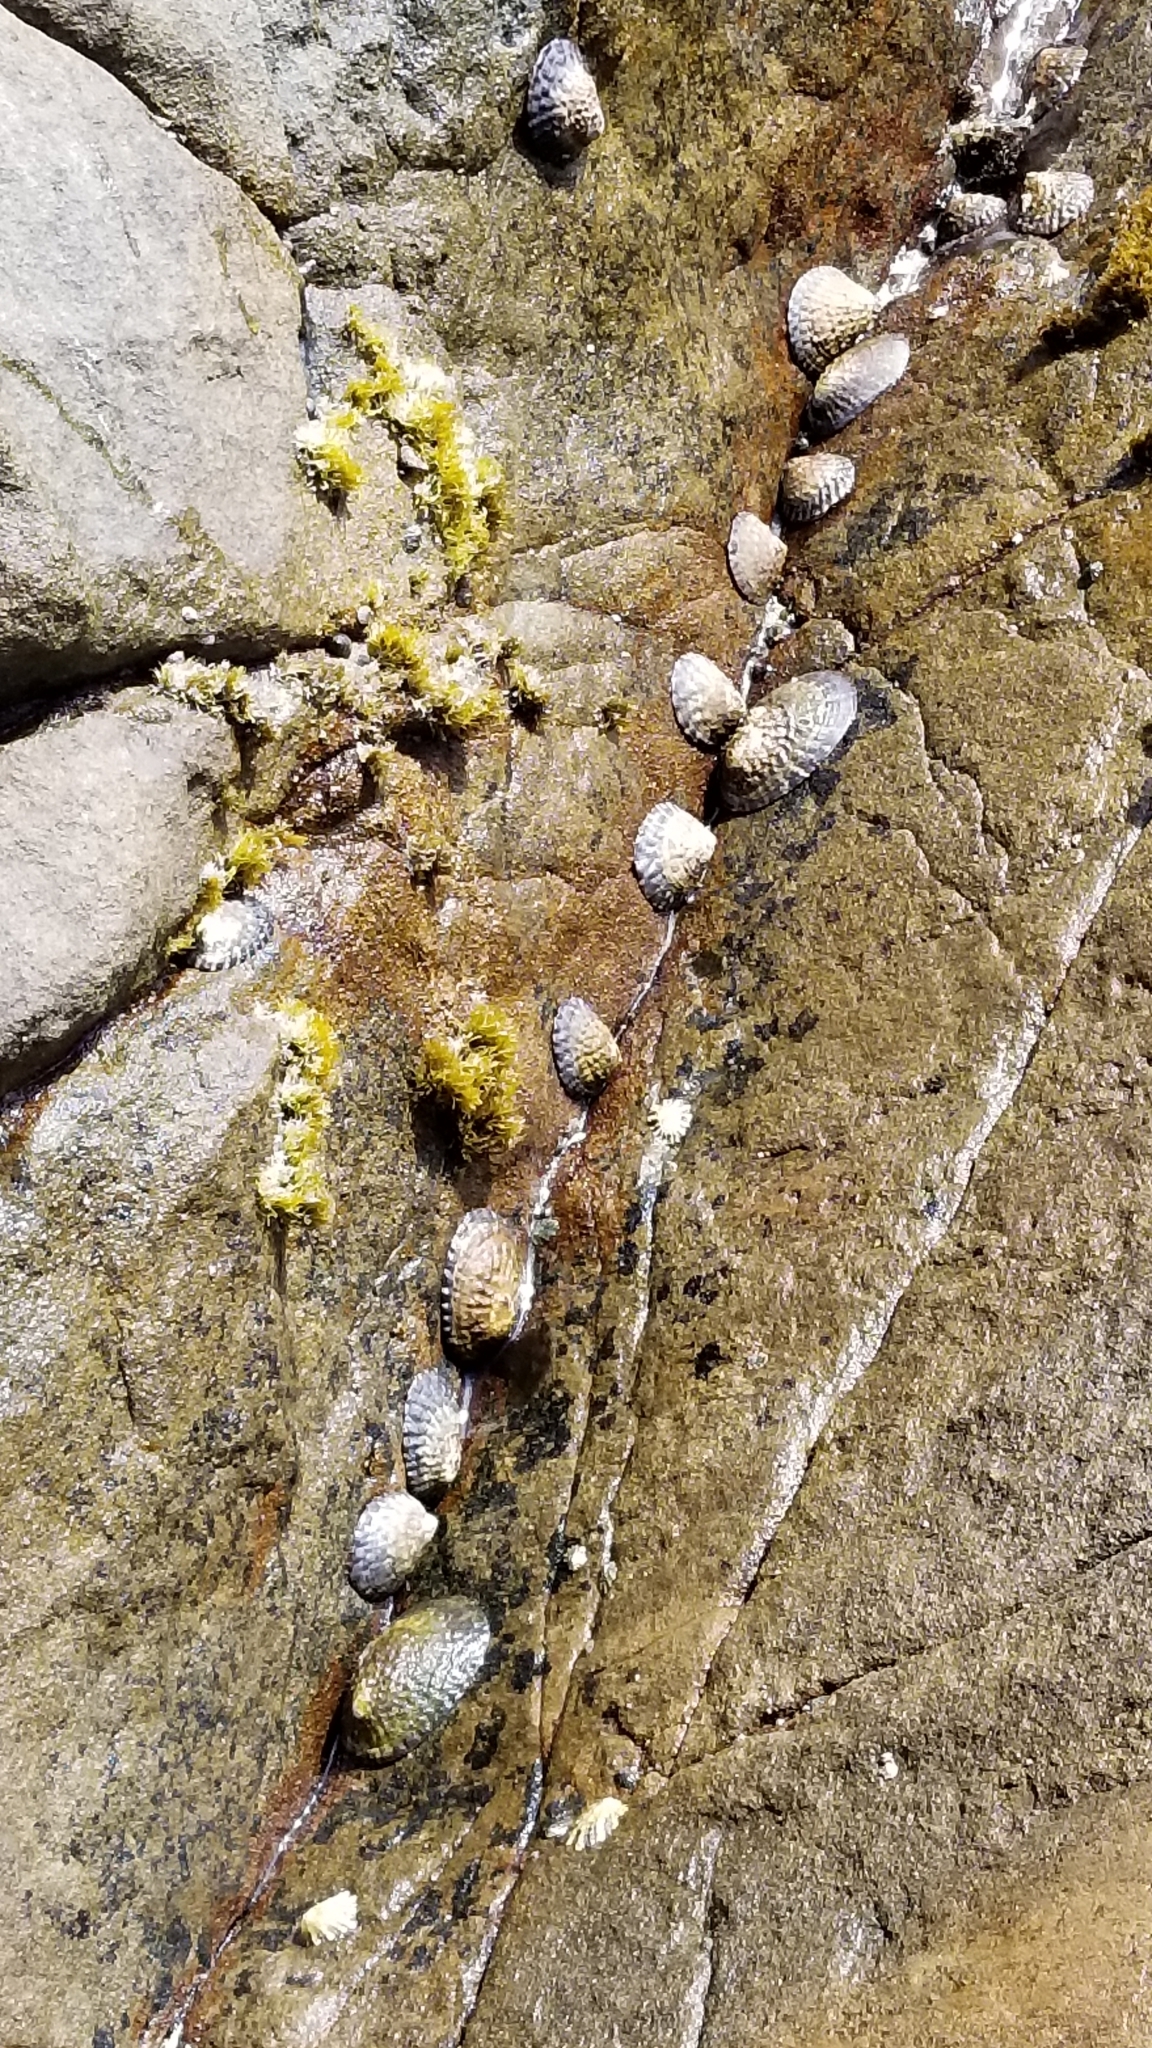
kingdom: Animalia
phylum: Mollusca
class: Gastropoda
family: Lottiidae
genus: Lottia
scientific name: Lottia gigantea
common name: Owl limpet
